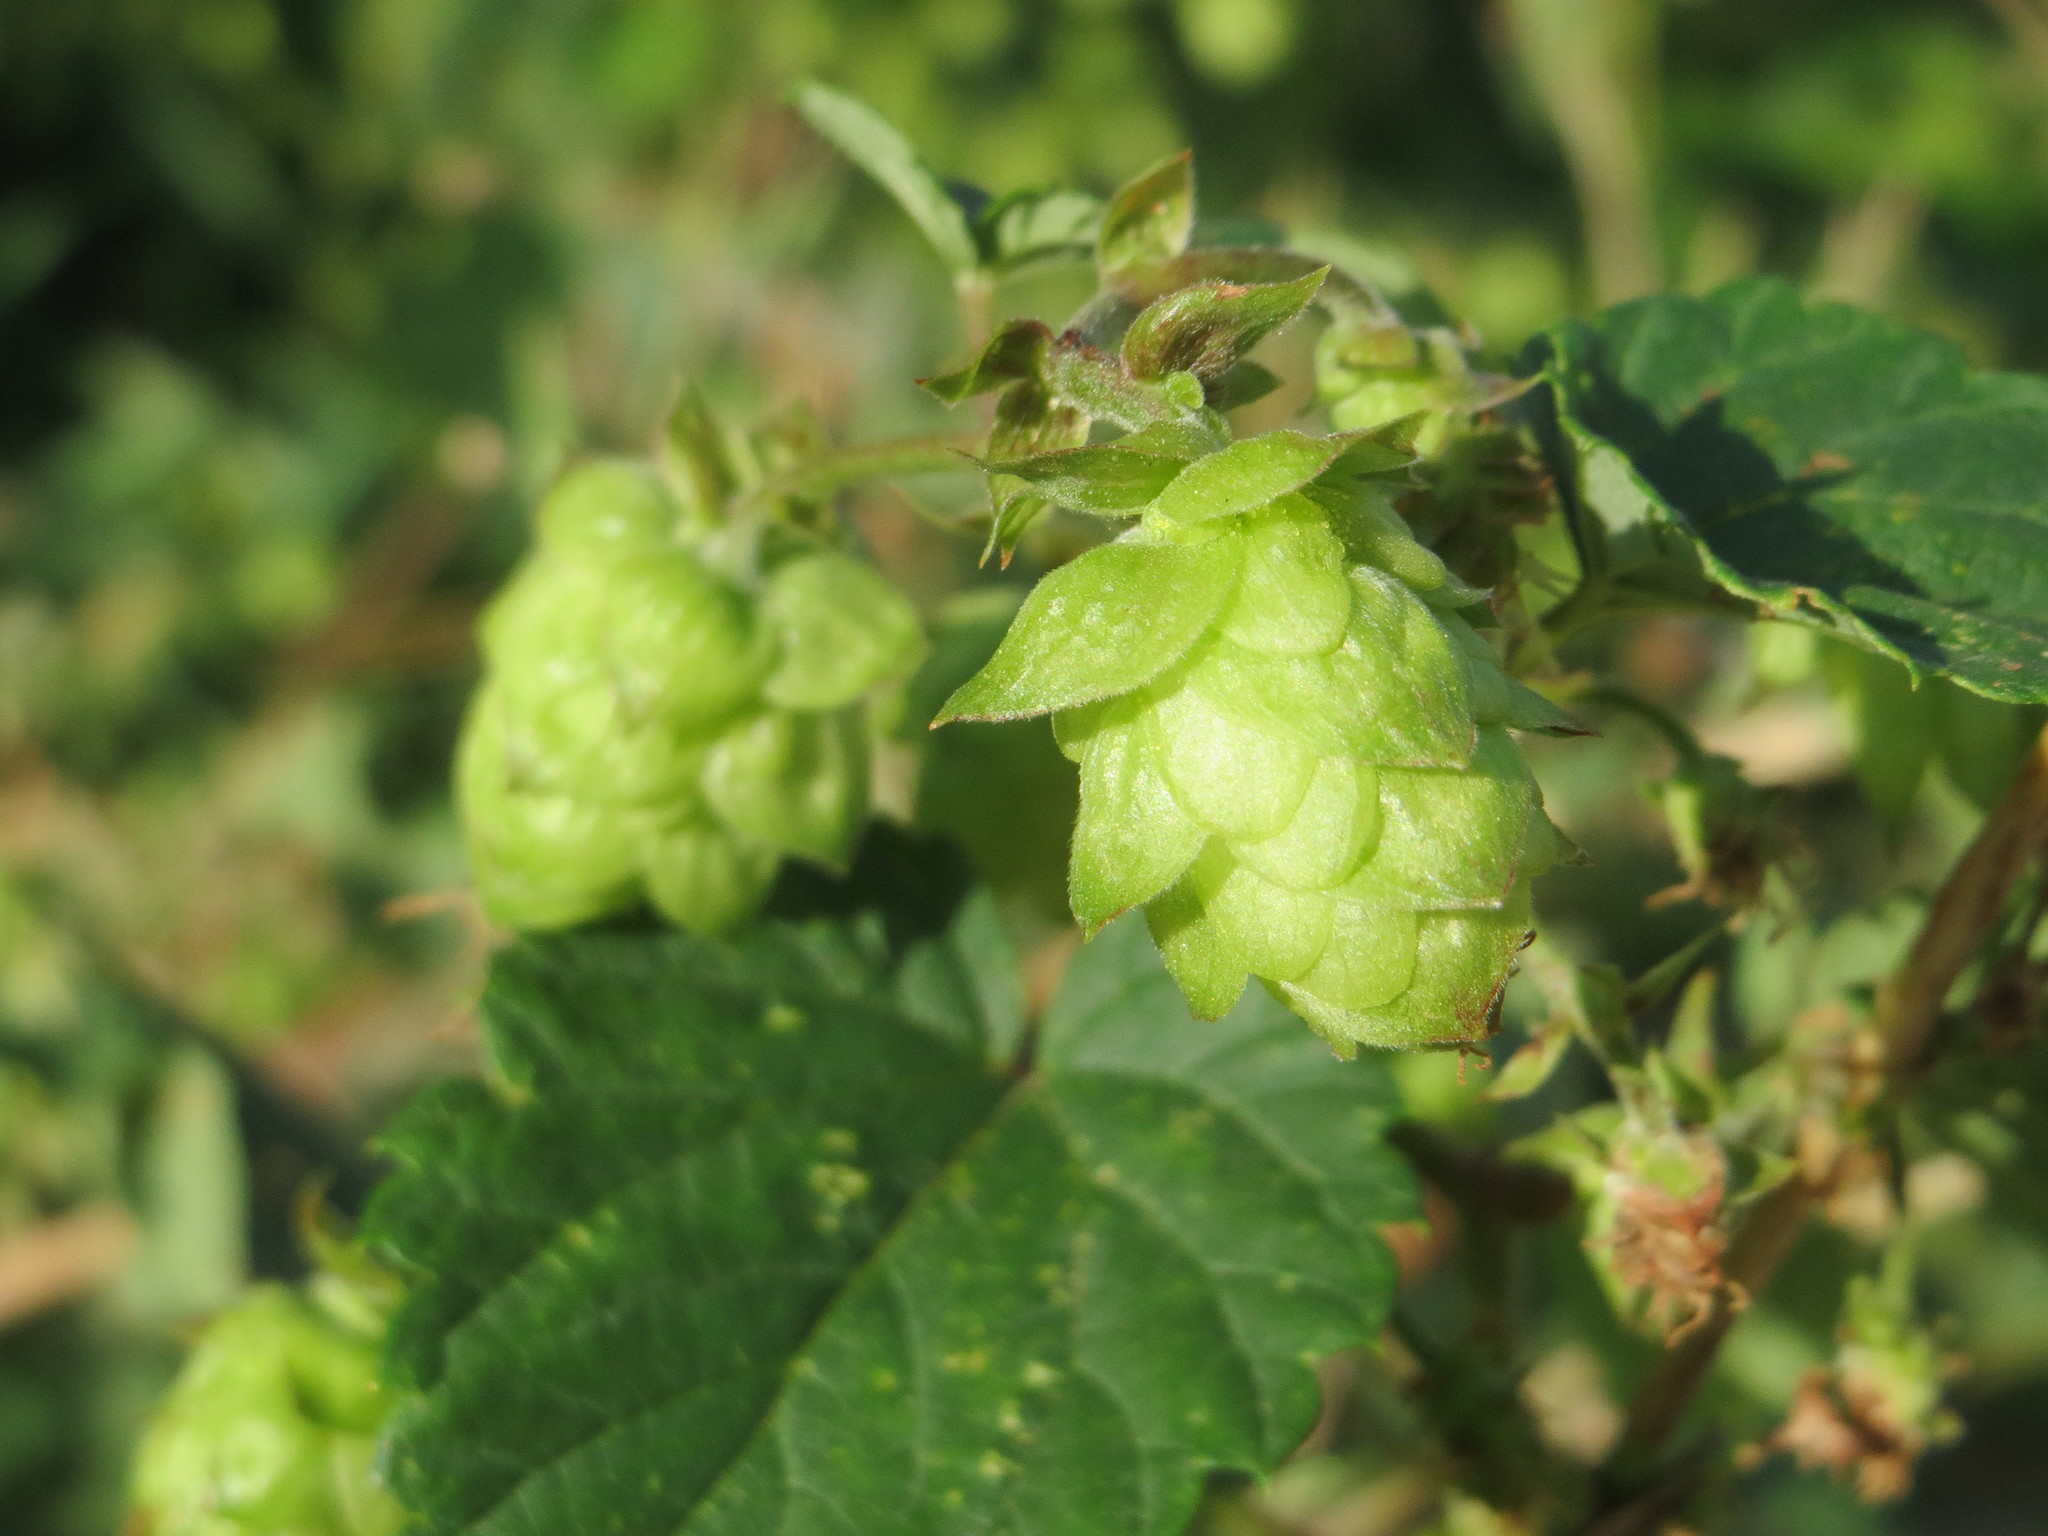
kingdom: Plantae
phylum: Tracheophyta
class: Magnoliopsida
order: Rosales
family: Cannabaceae
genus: Humulus
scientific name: Humulus lupulus
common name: Hop
